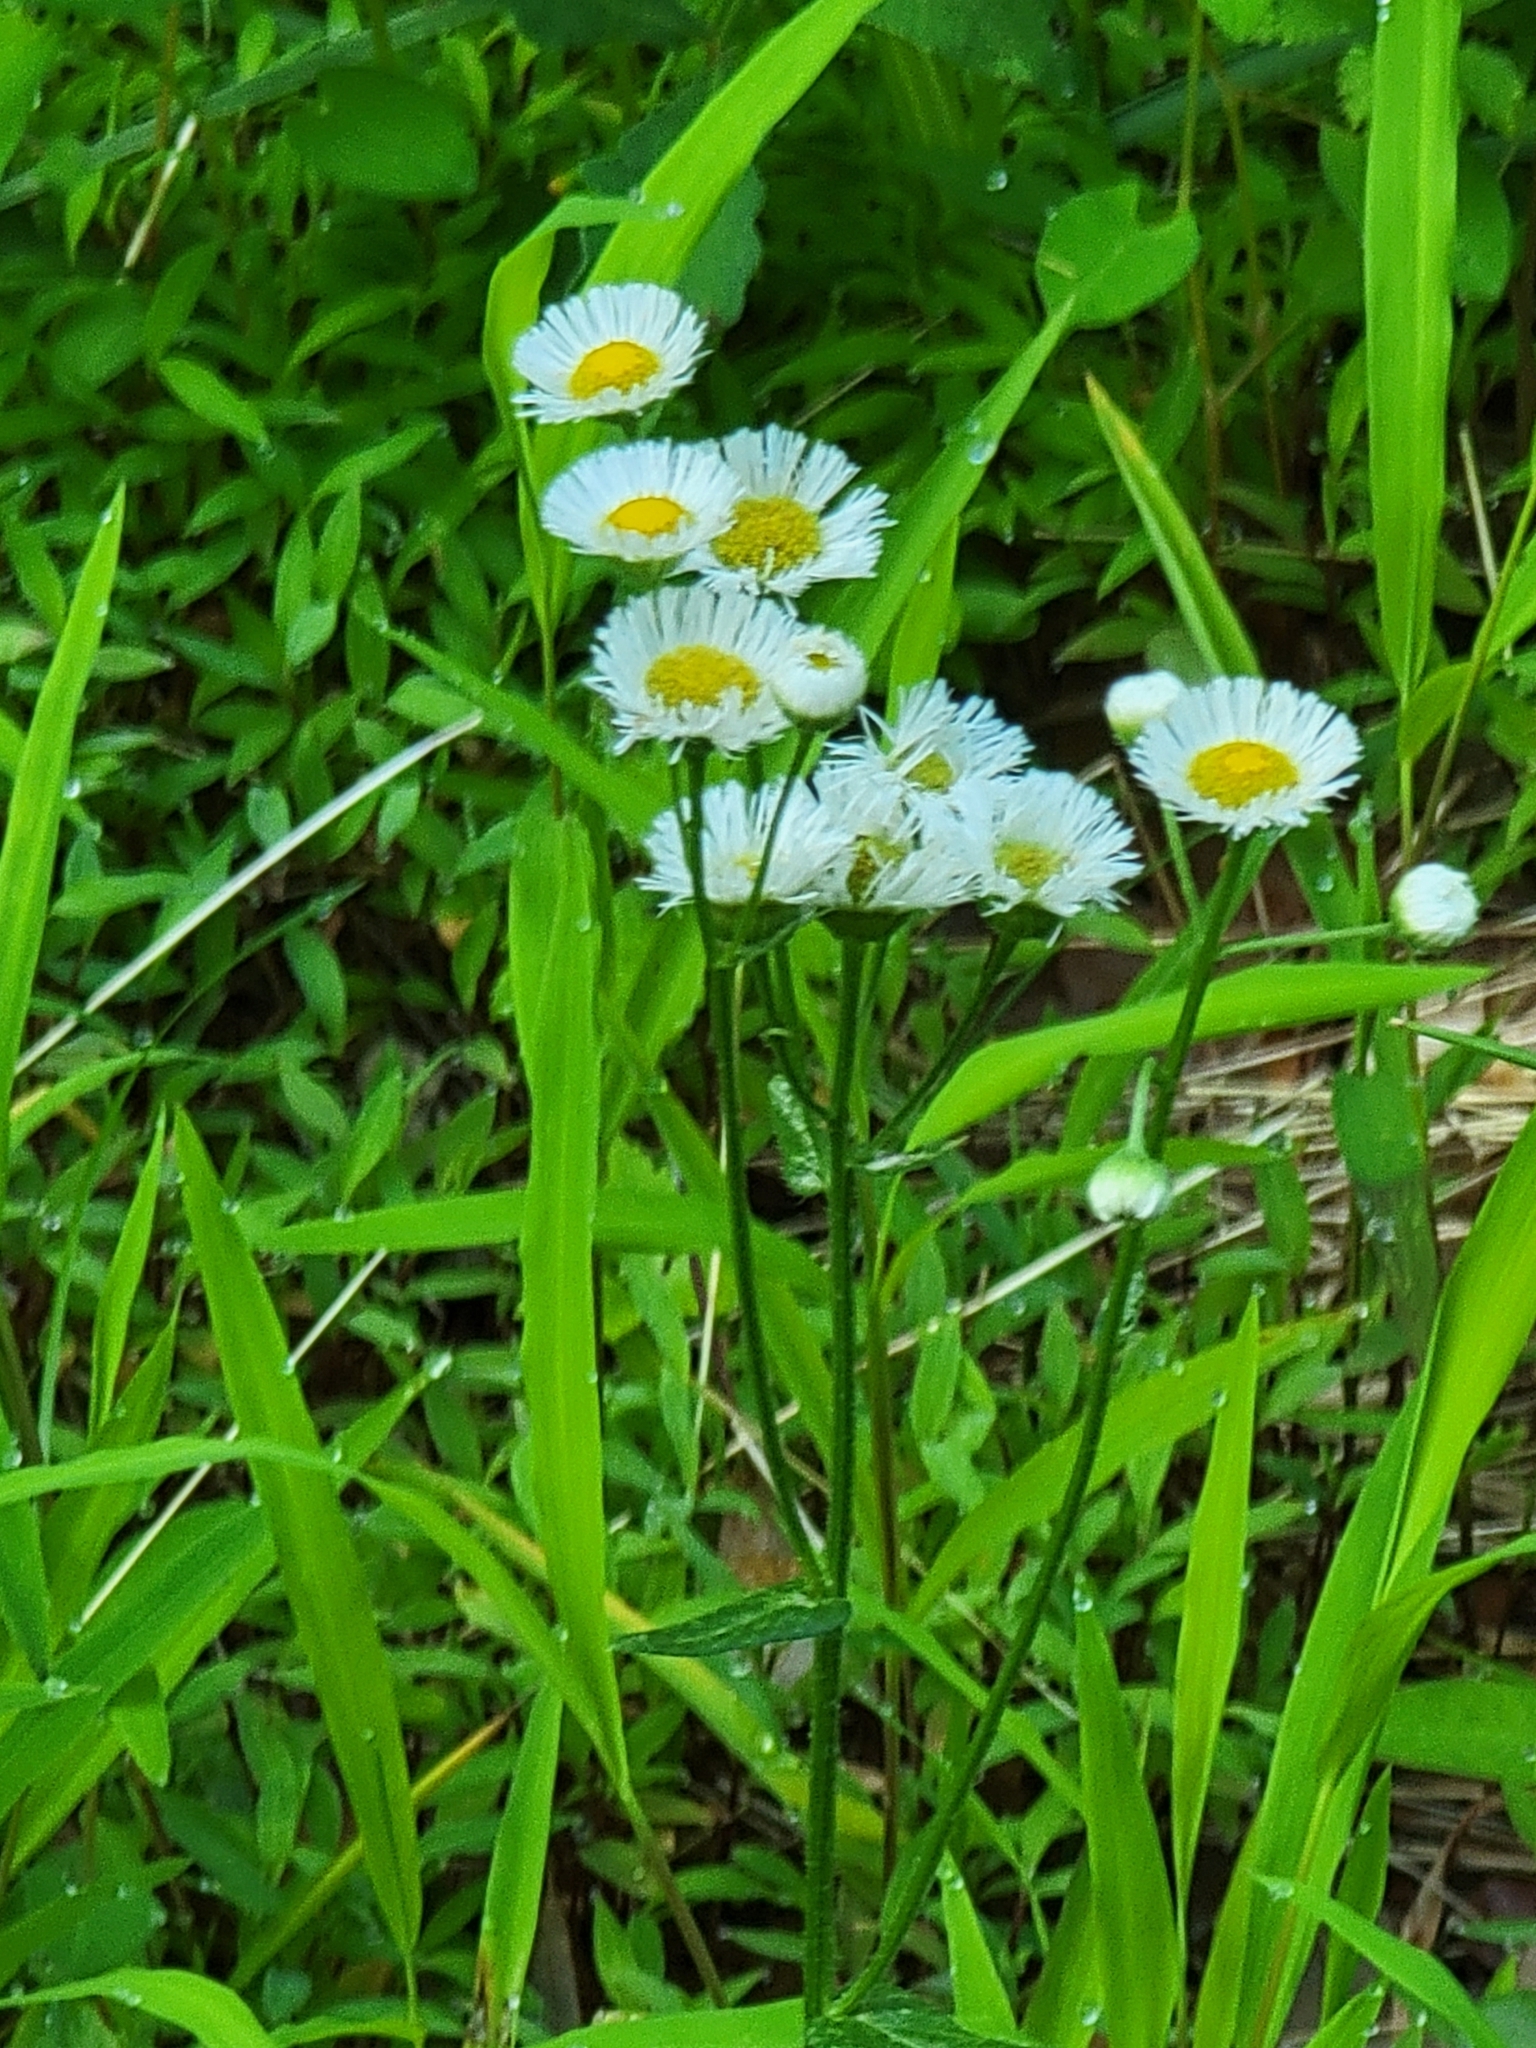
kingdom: Plantae
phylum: Tracheophyta
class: Magnoliopsida
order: Asterales
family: Asteraceae
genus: Erigeron
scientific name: Erigeron philadelphicus
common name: Robin's-plantain
